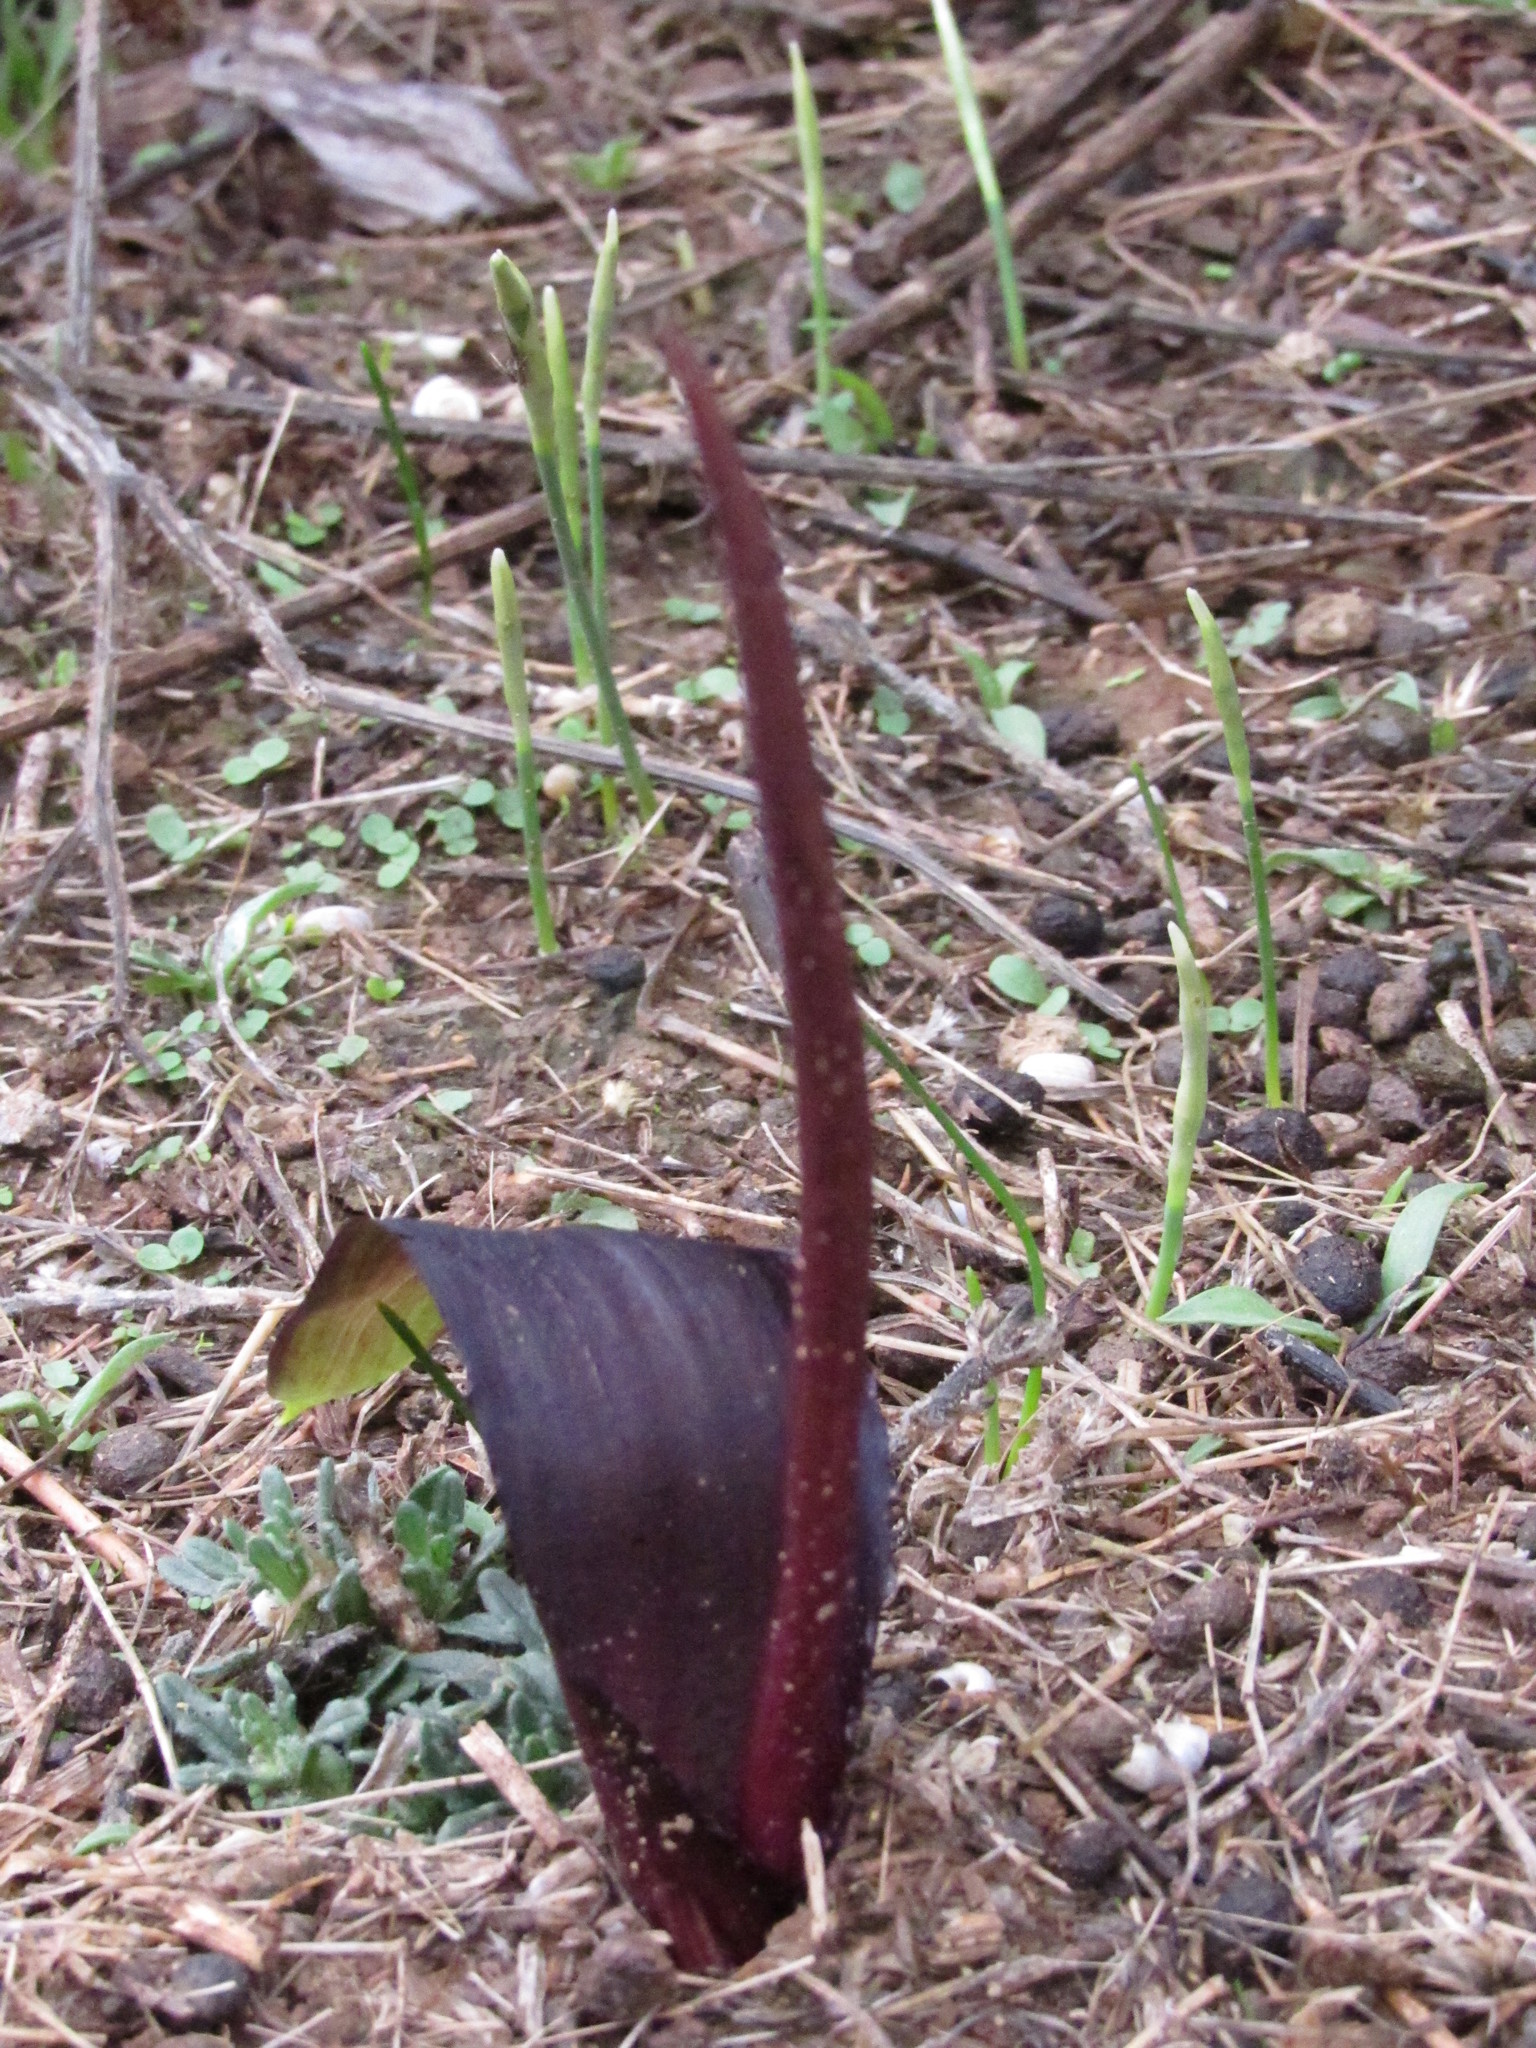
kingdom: Plantae
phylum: Tracheophyta
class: Liliopsida
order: Alismatales
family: Araceae
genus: Biarum
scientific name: Biarum tenuifolium
